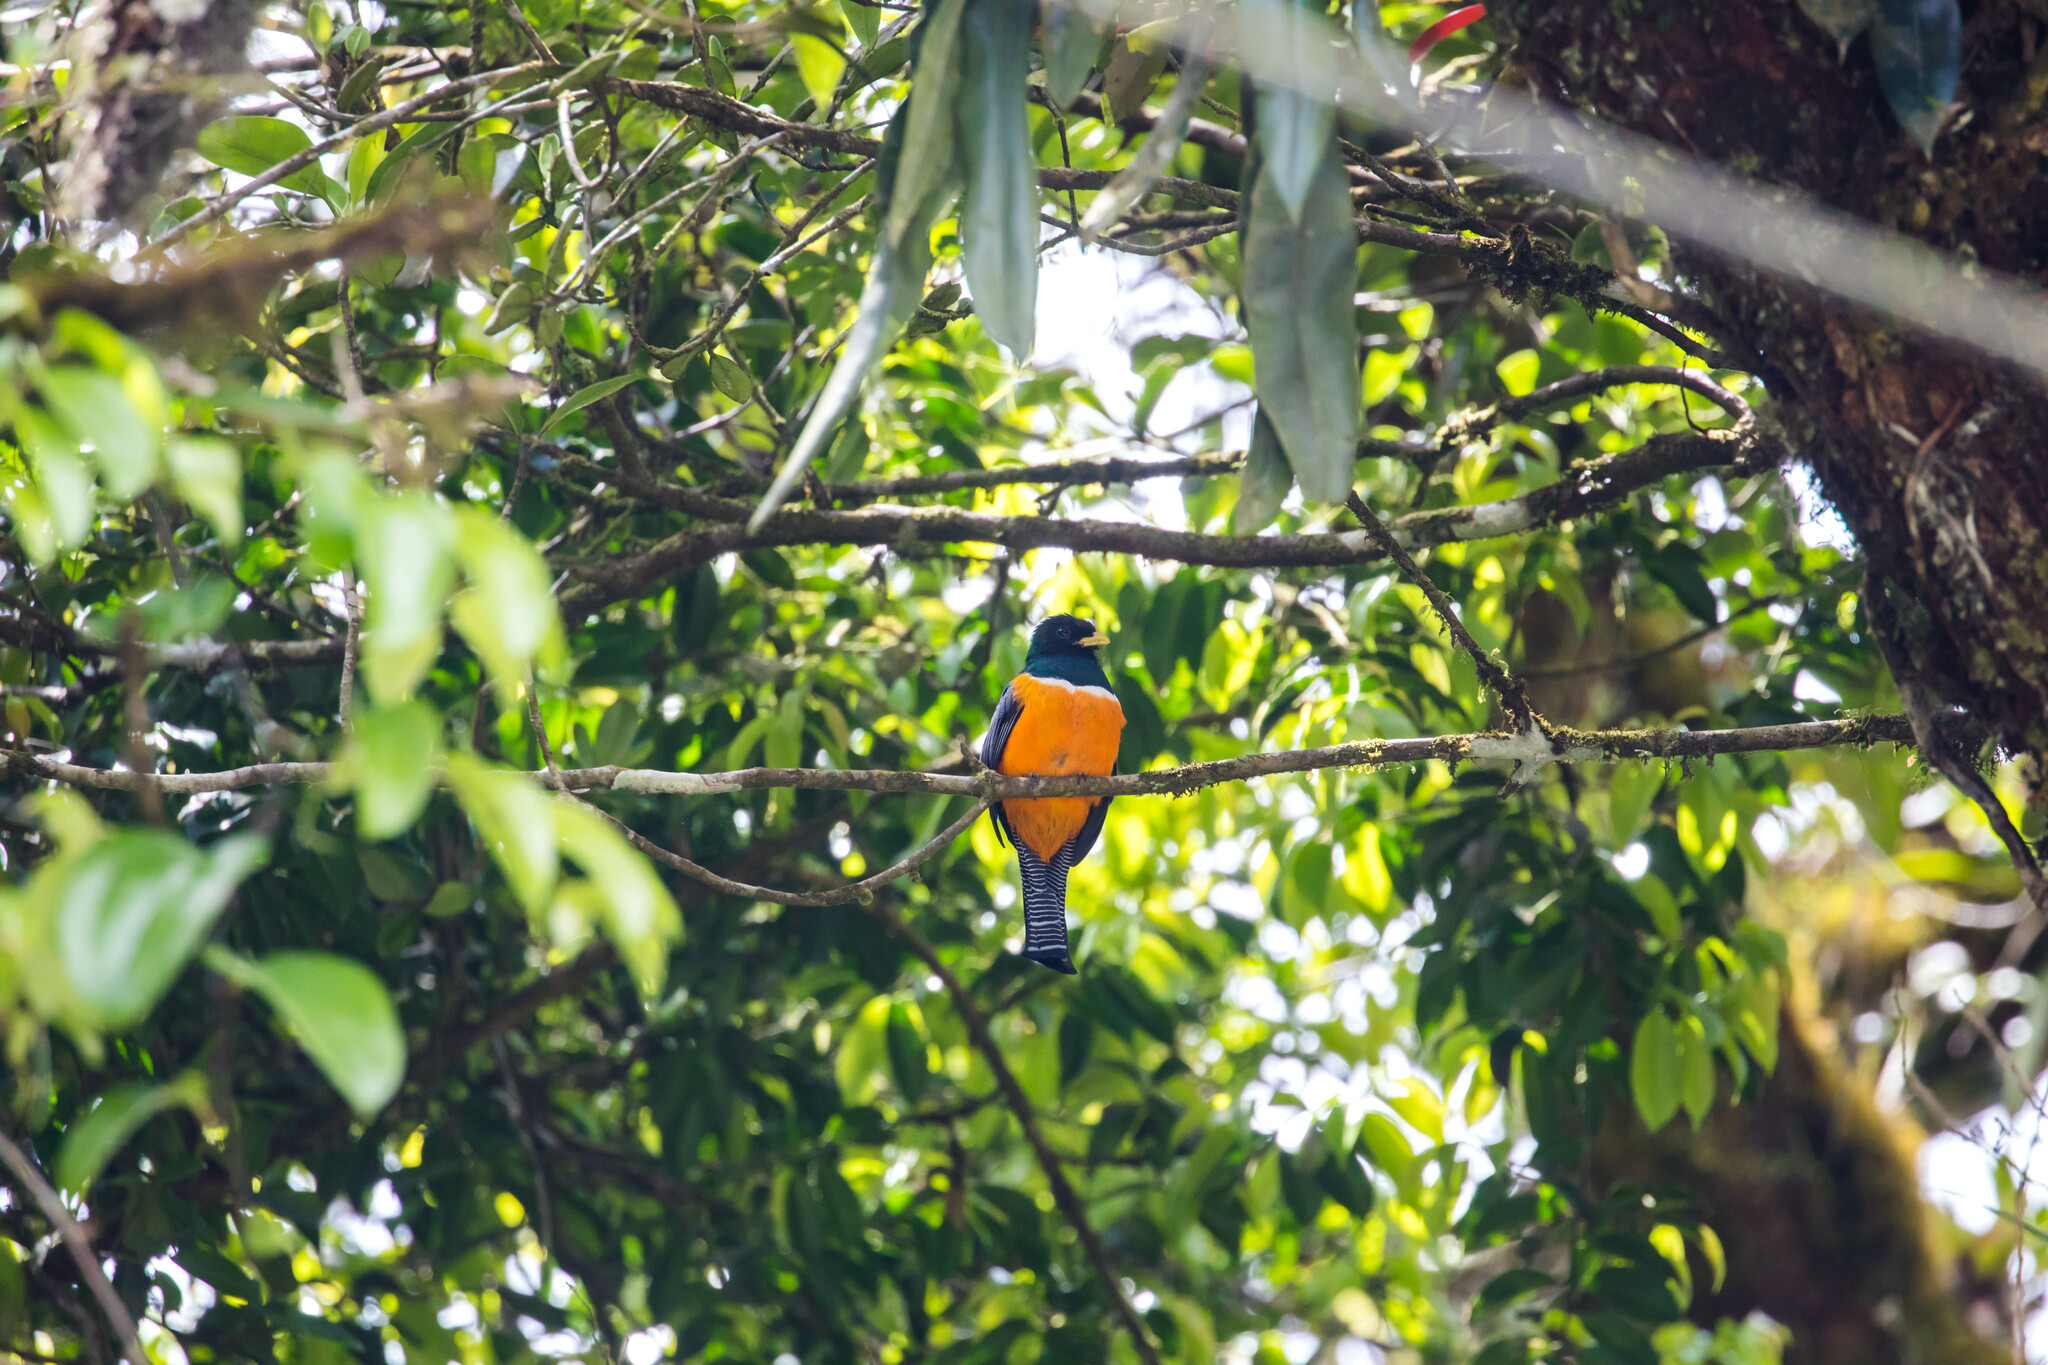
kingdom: Animalia
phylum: Chordata
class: Aves
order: Trogoniformes
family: Trogonidae
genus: Trogon
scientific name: Trogon collaris
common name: Collared trogon
